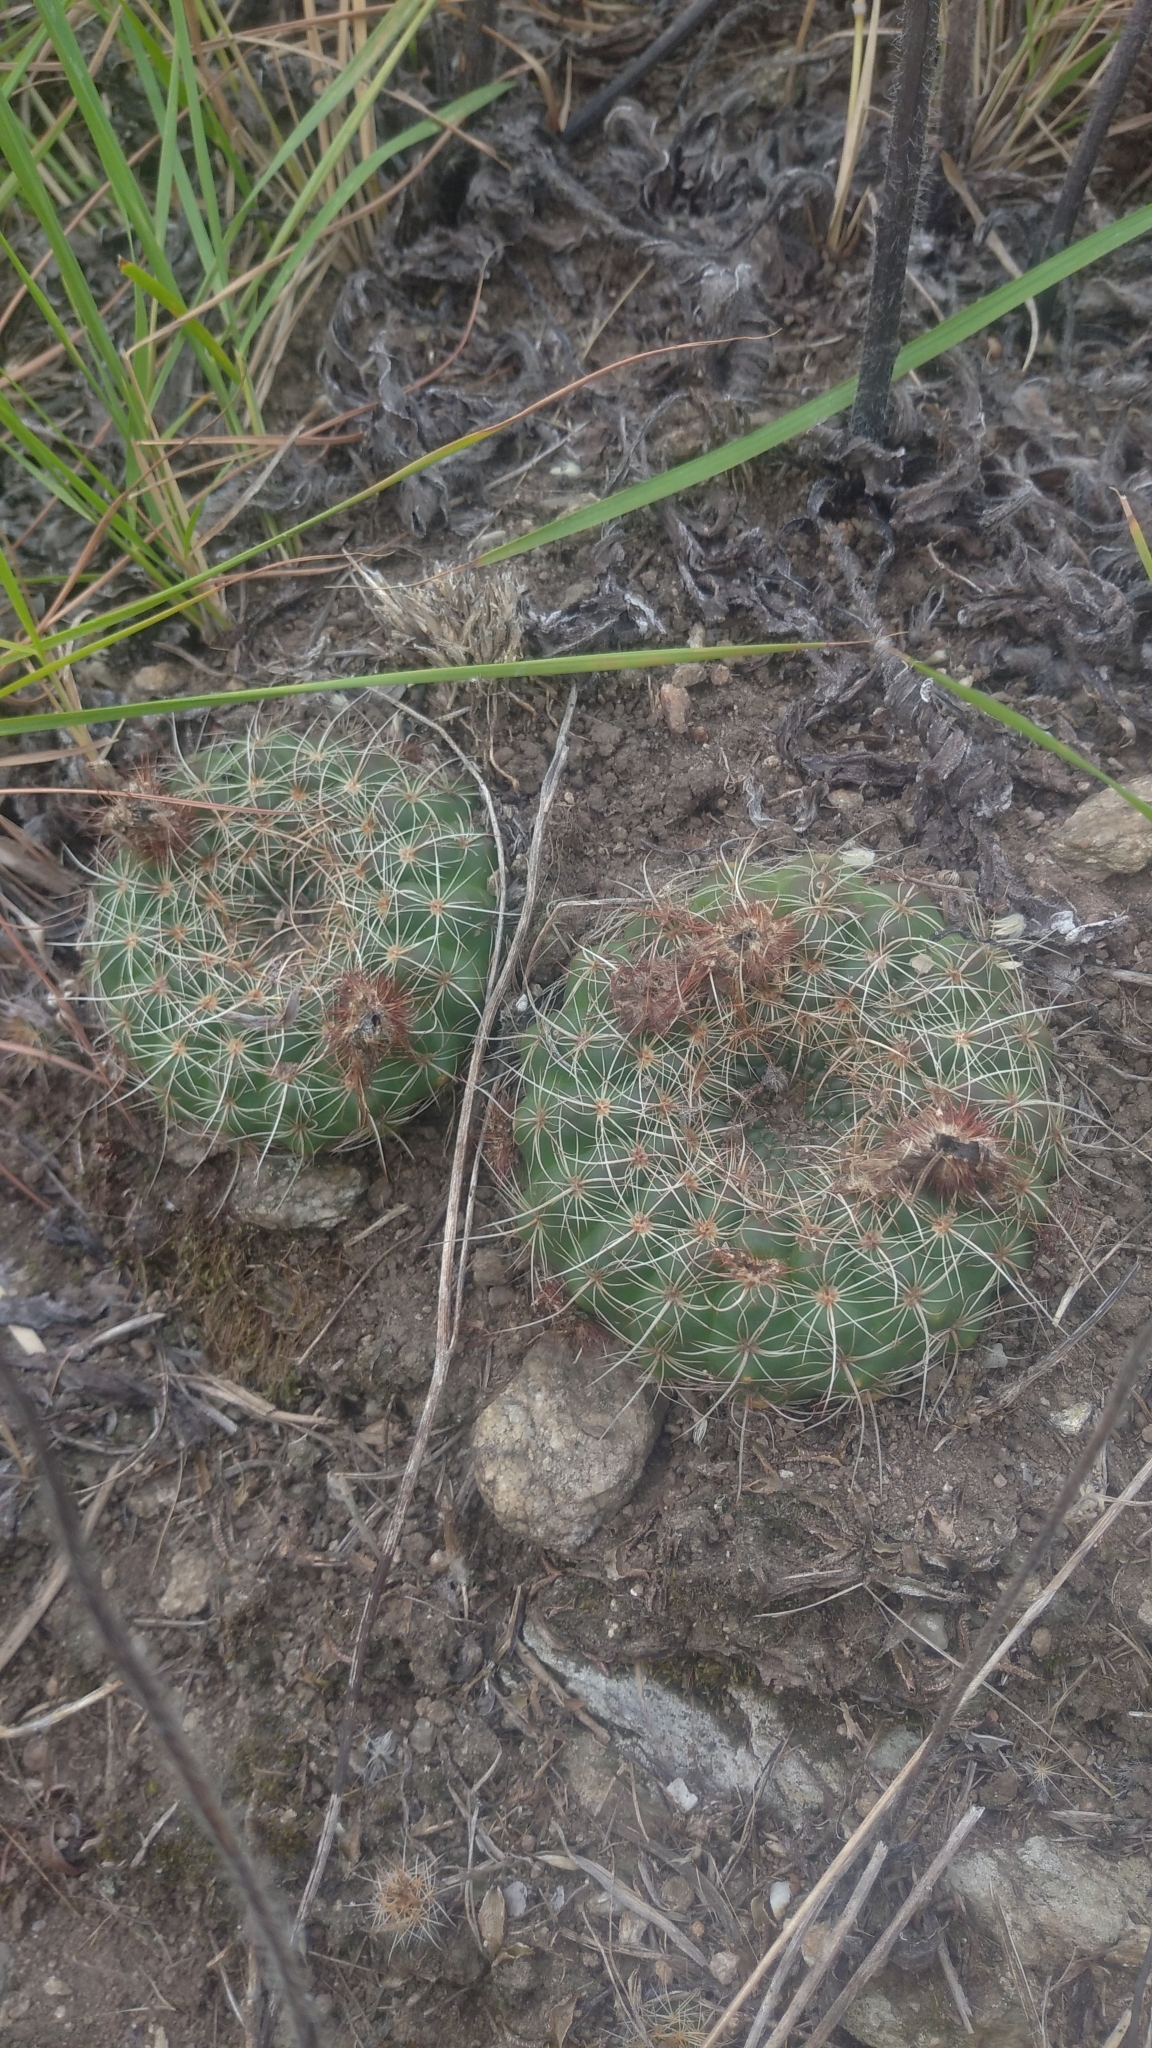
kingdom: Plantae
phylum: Tracheophyta
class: Magnoliopsida
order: Caryophyllales
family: Cactaceae
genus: Parodia
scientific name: Parodia concinna
